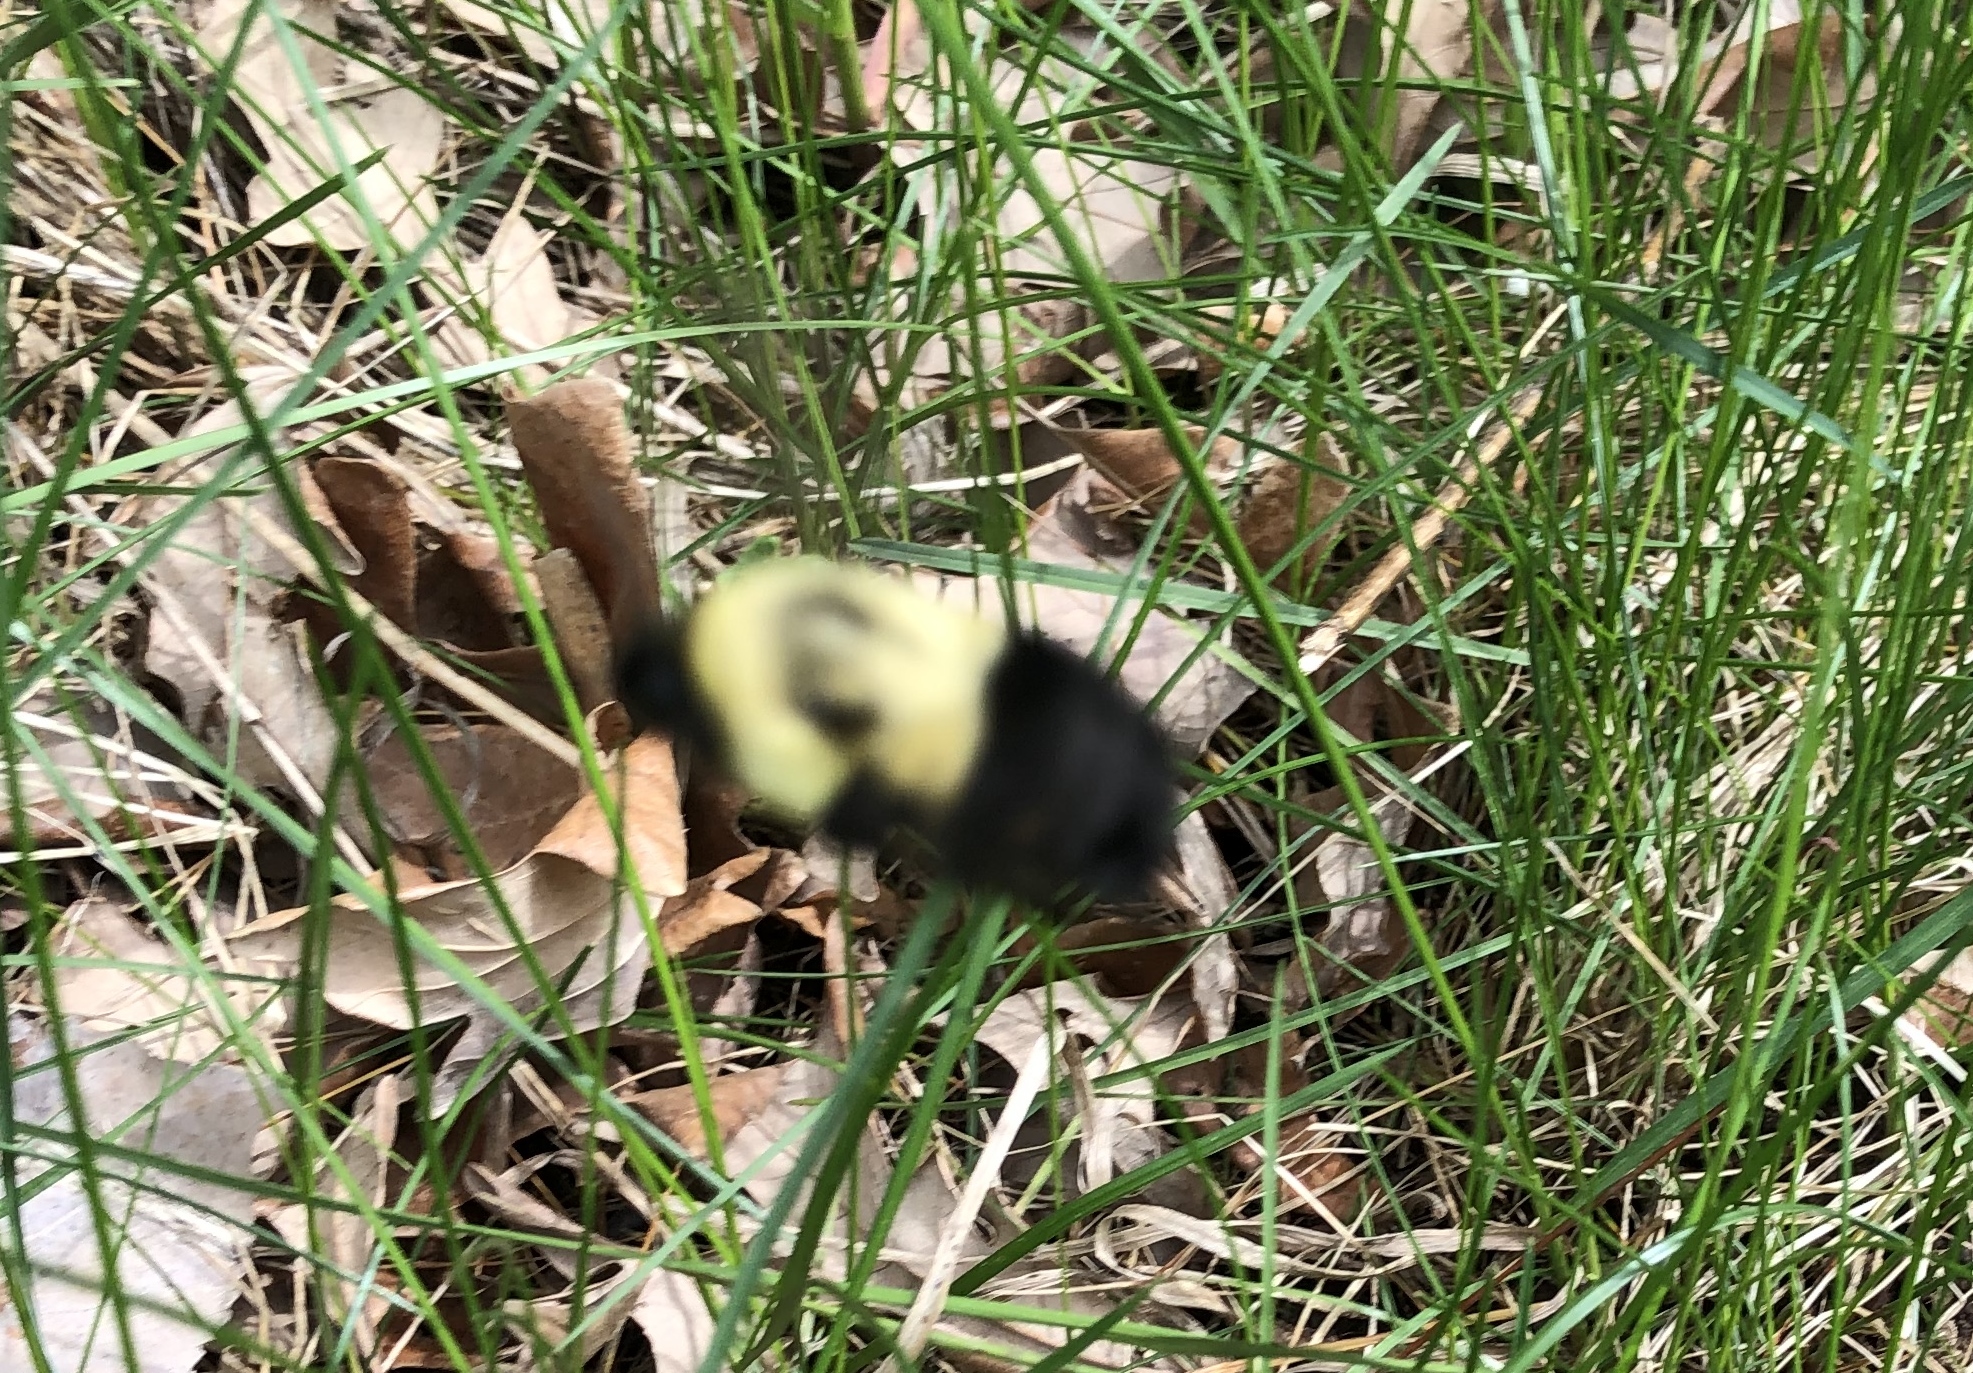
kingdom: Animalia
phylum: Arthropoda
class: Insecta
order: Hymenoptera
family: Apidae
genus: Bombus
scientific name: Bombus impatiens
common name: Common eastern bumble bee
